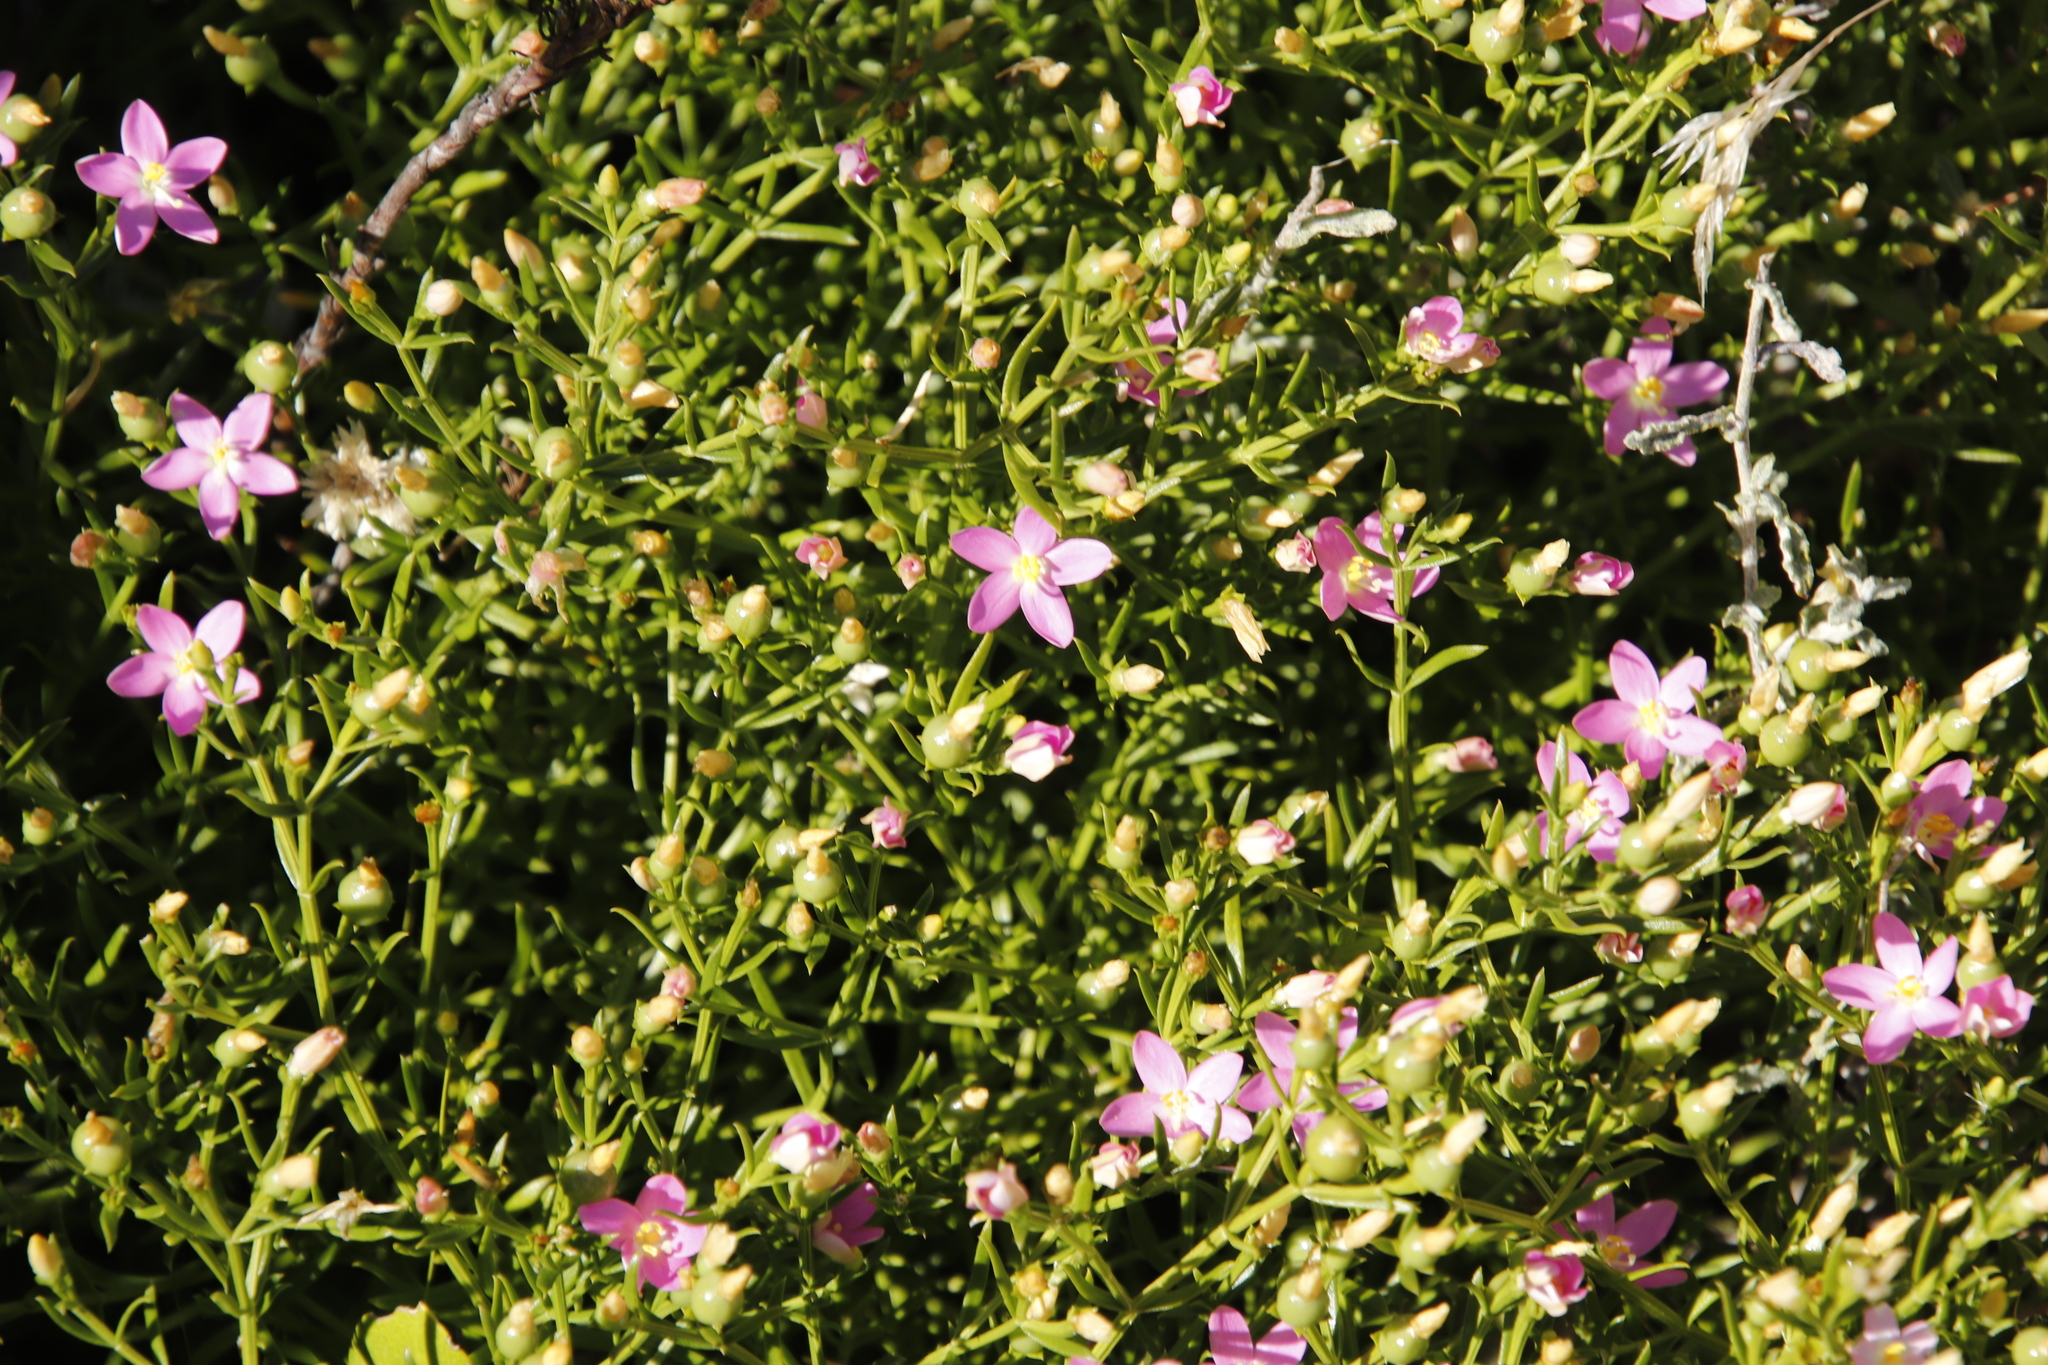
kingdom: Plantae
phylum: Tracheophyta
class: Magnoliopsida
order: Gentianales
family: Gentianaceae
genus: Chironia
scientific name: Chironia baccifera
